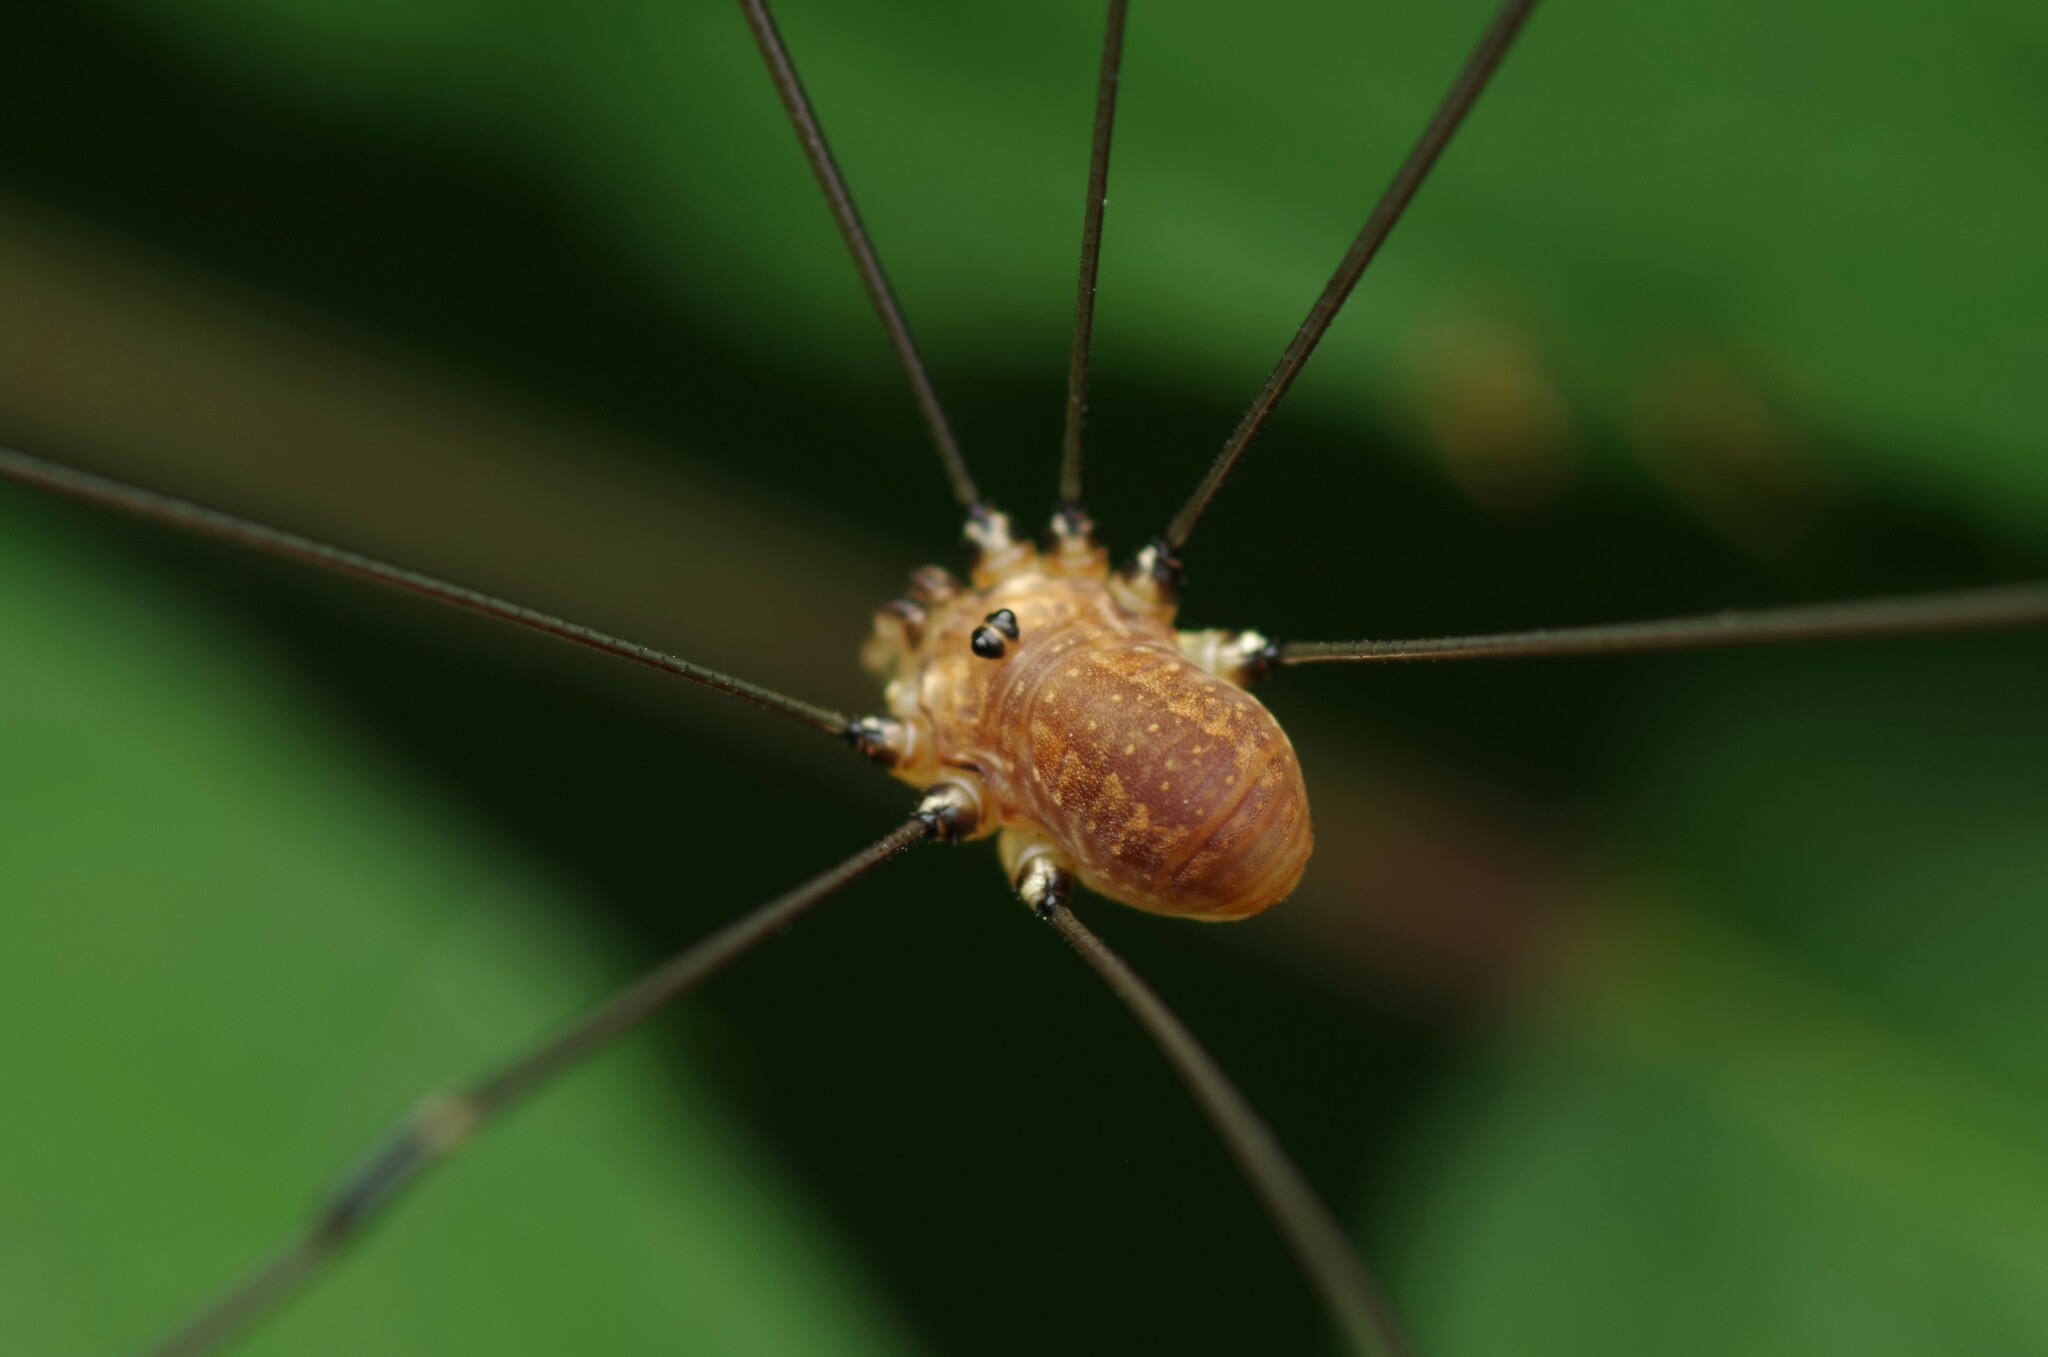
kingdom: Animalia
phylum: Arthropoda
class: Arachnida
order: Opiliones
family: Sclerosomatidae
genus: Leiobunum
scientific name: Leiobunum rotundum
